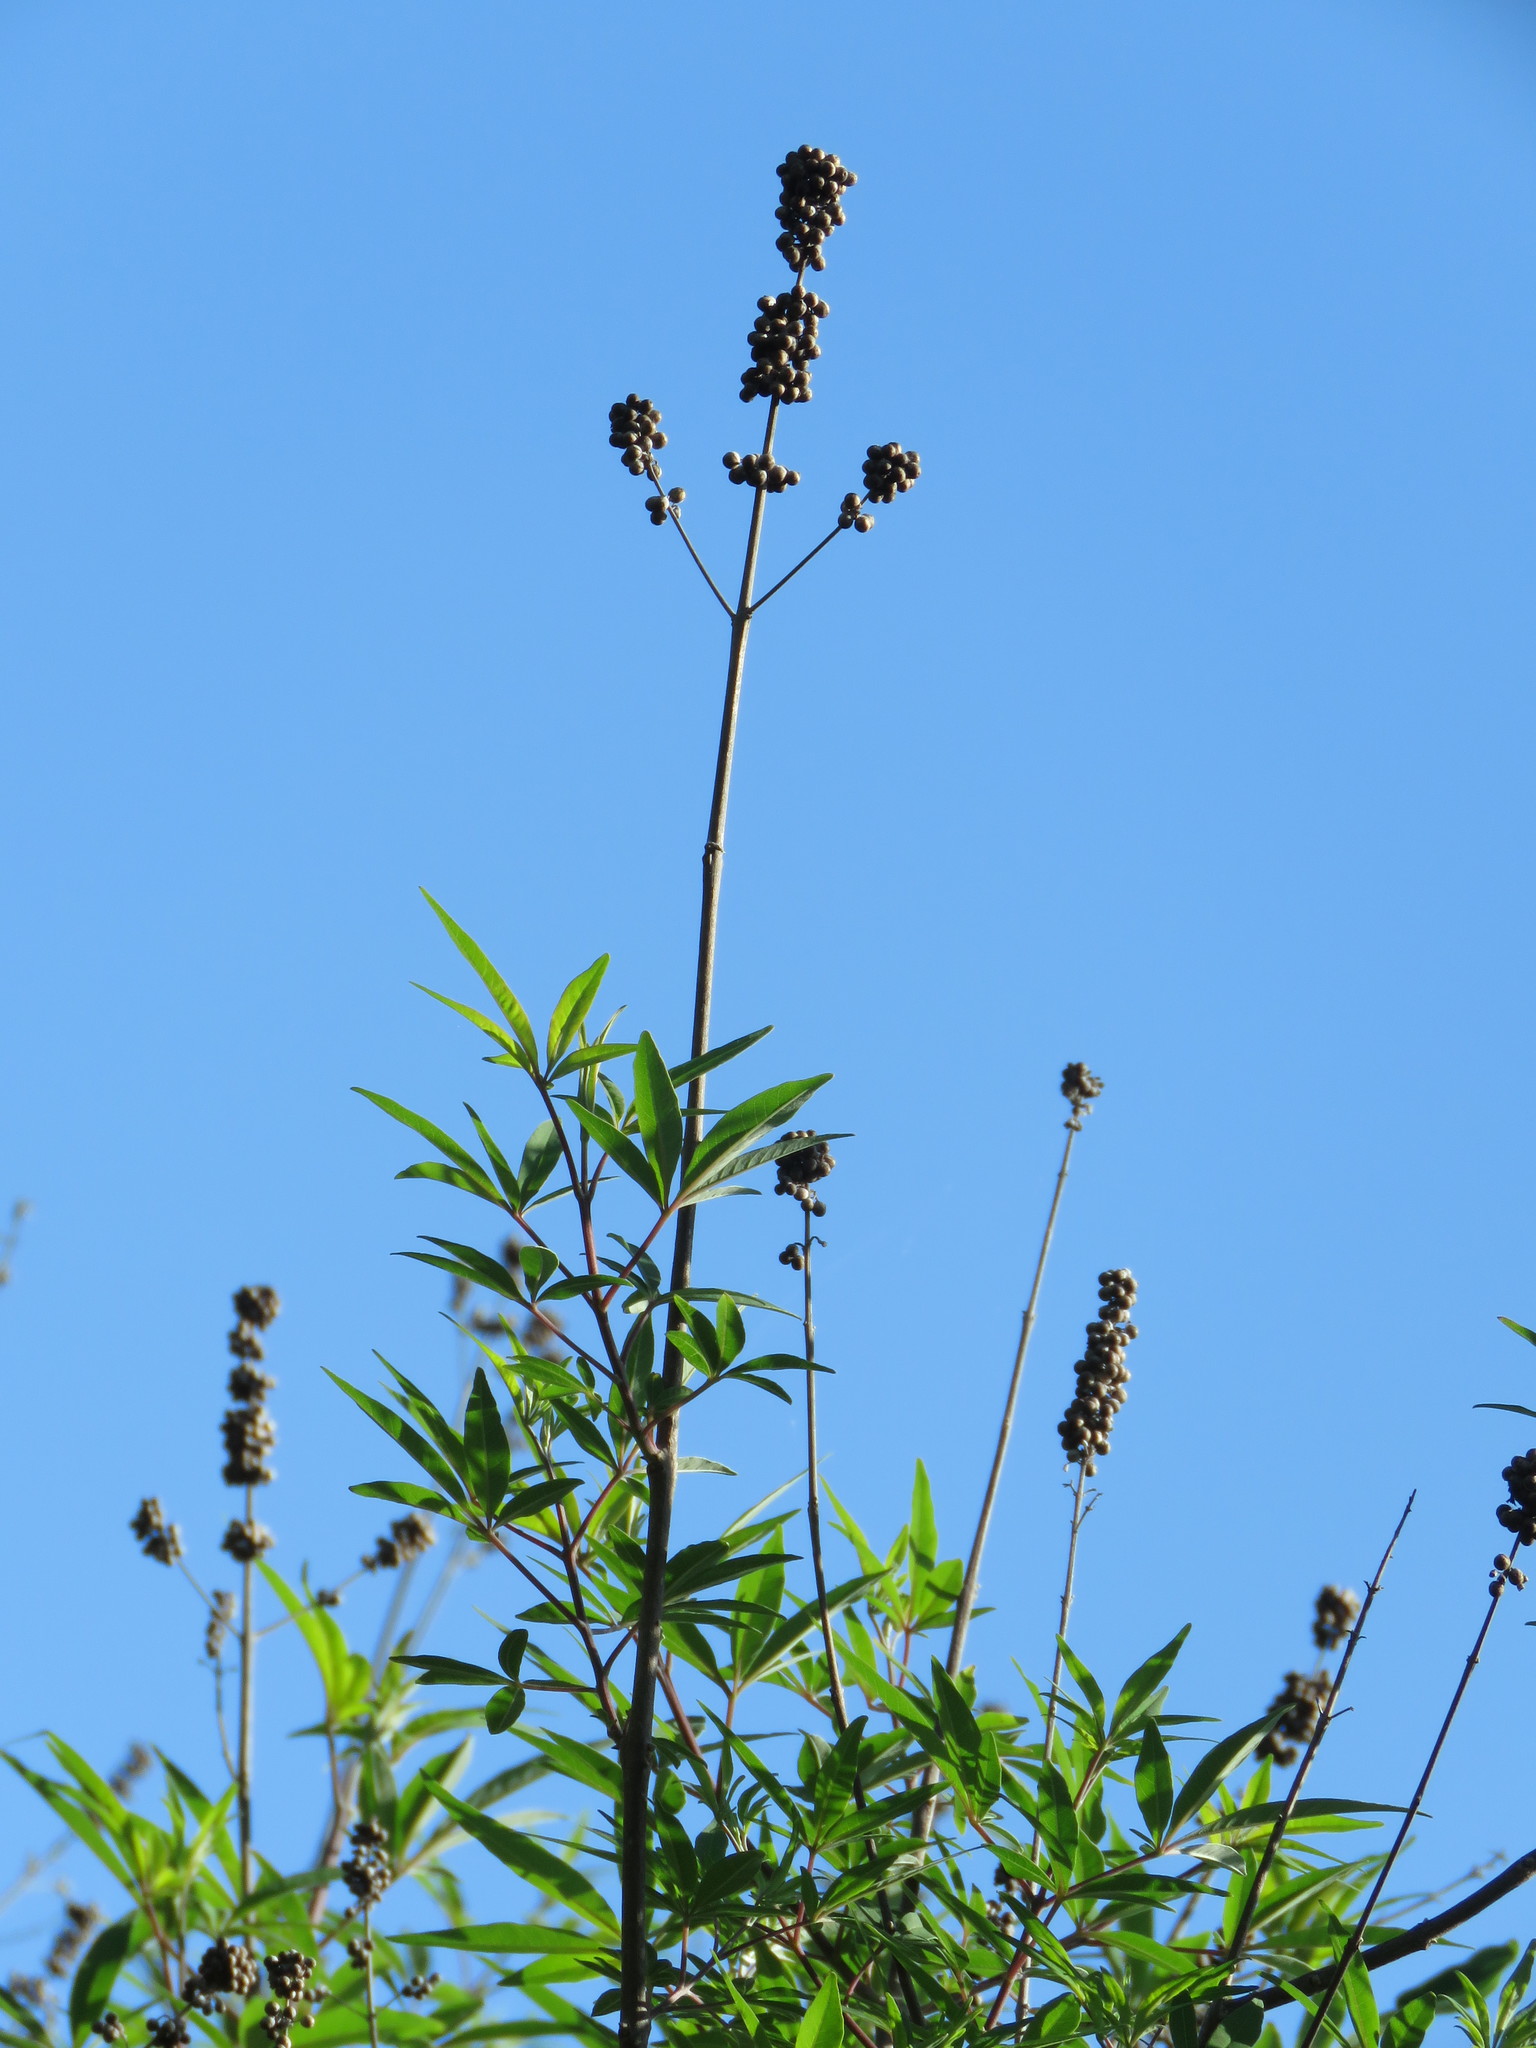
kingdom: Plantae
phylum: Tracheophyta
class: Magnoliopsida
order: Lamiales
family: Lamiaceae
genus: Vitex
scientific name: Vitex agnus-castus
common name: Chasteberry
